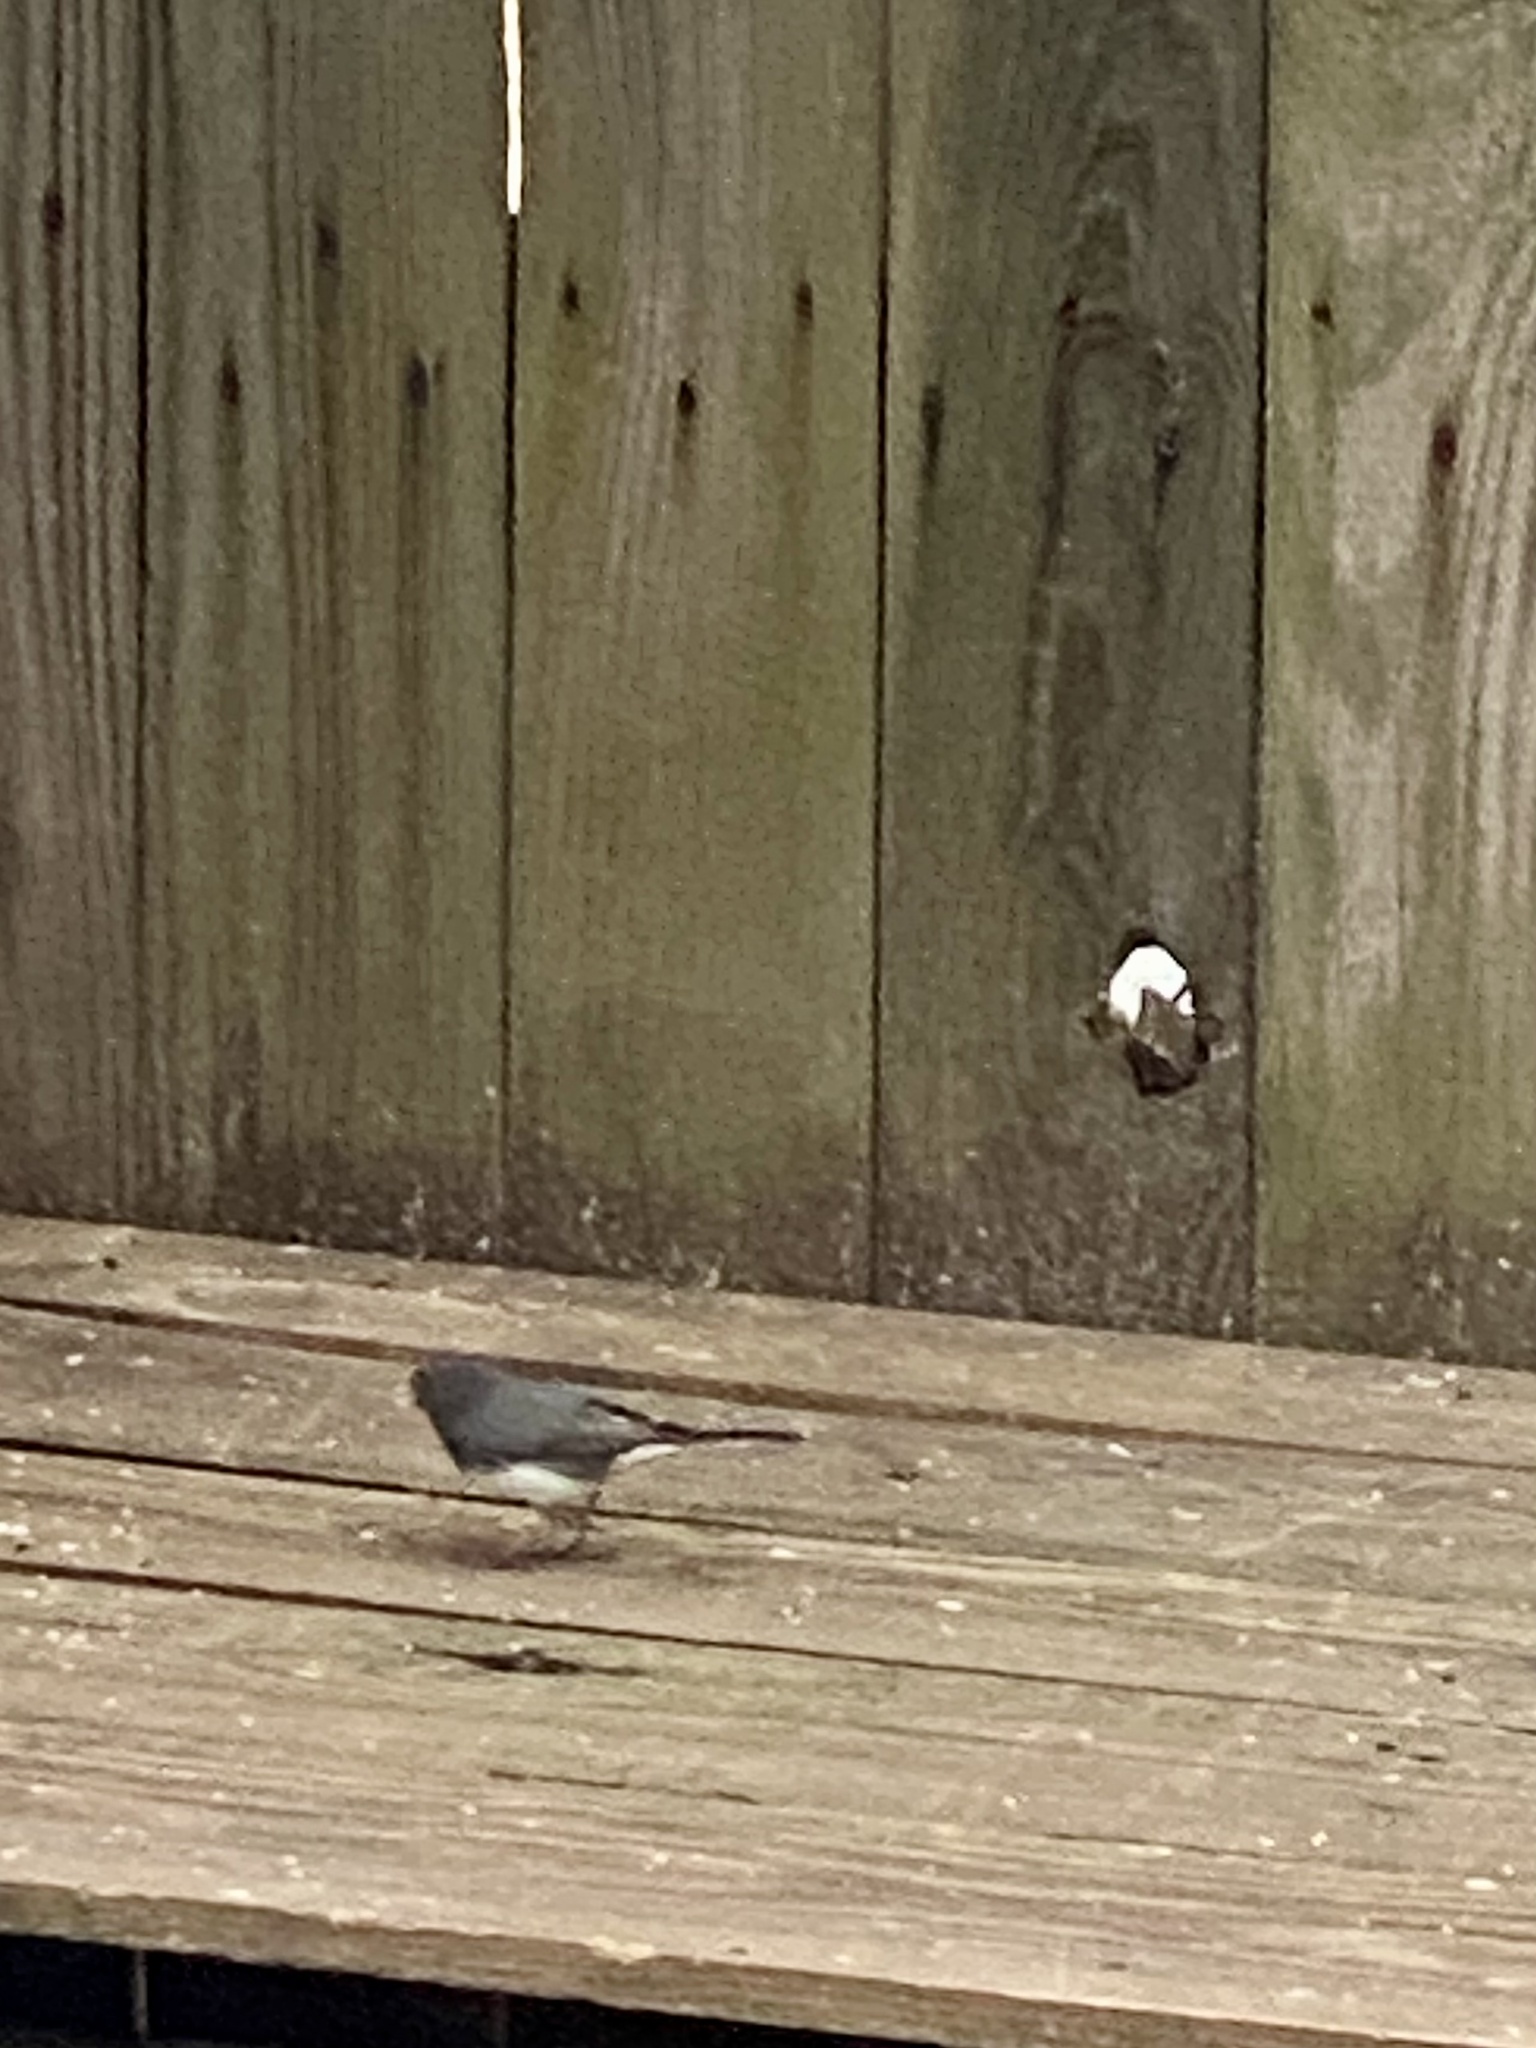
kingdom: Animalia
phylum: Chordata
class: Aves
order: Passeriformes
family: Passerellidae
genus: Junco
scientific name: Junco hyemalis
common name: Dark-eyed junco
